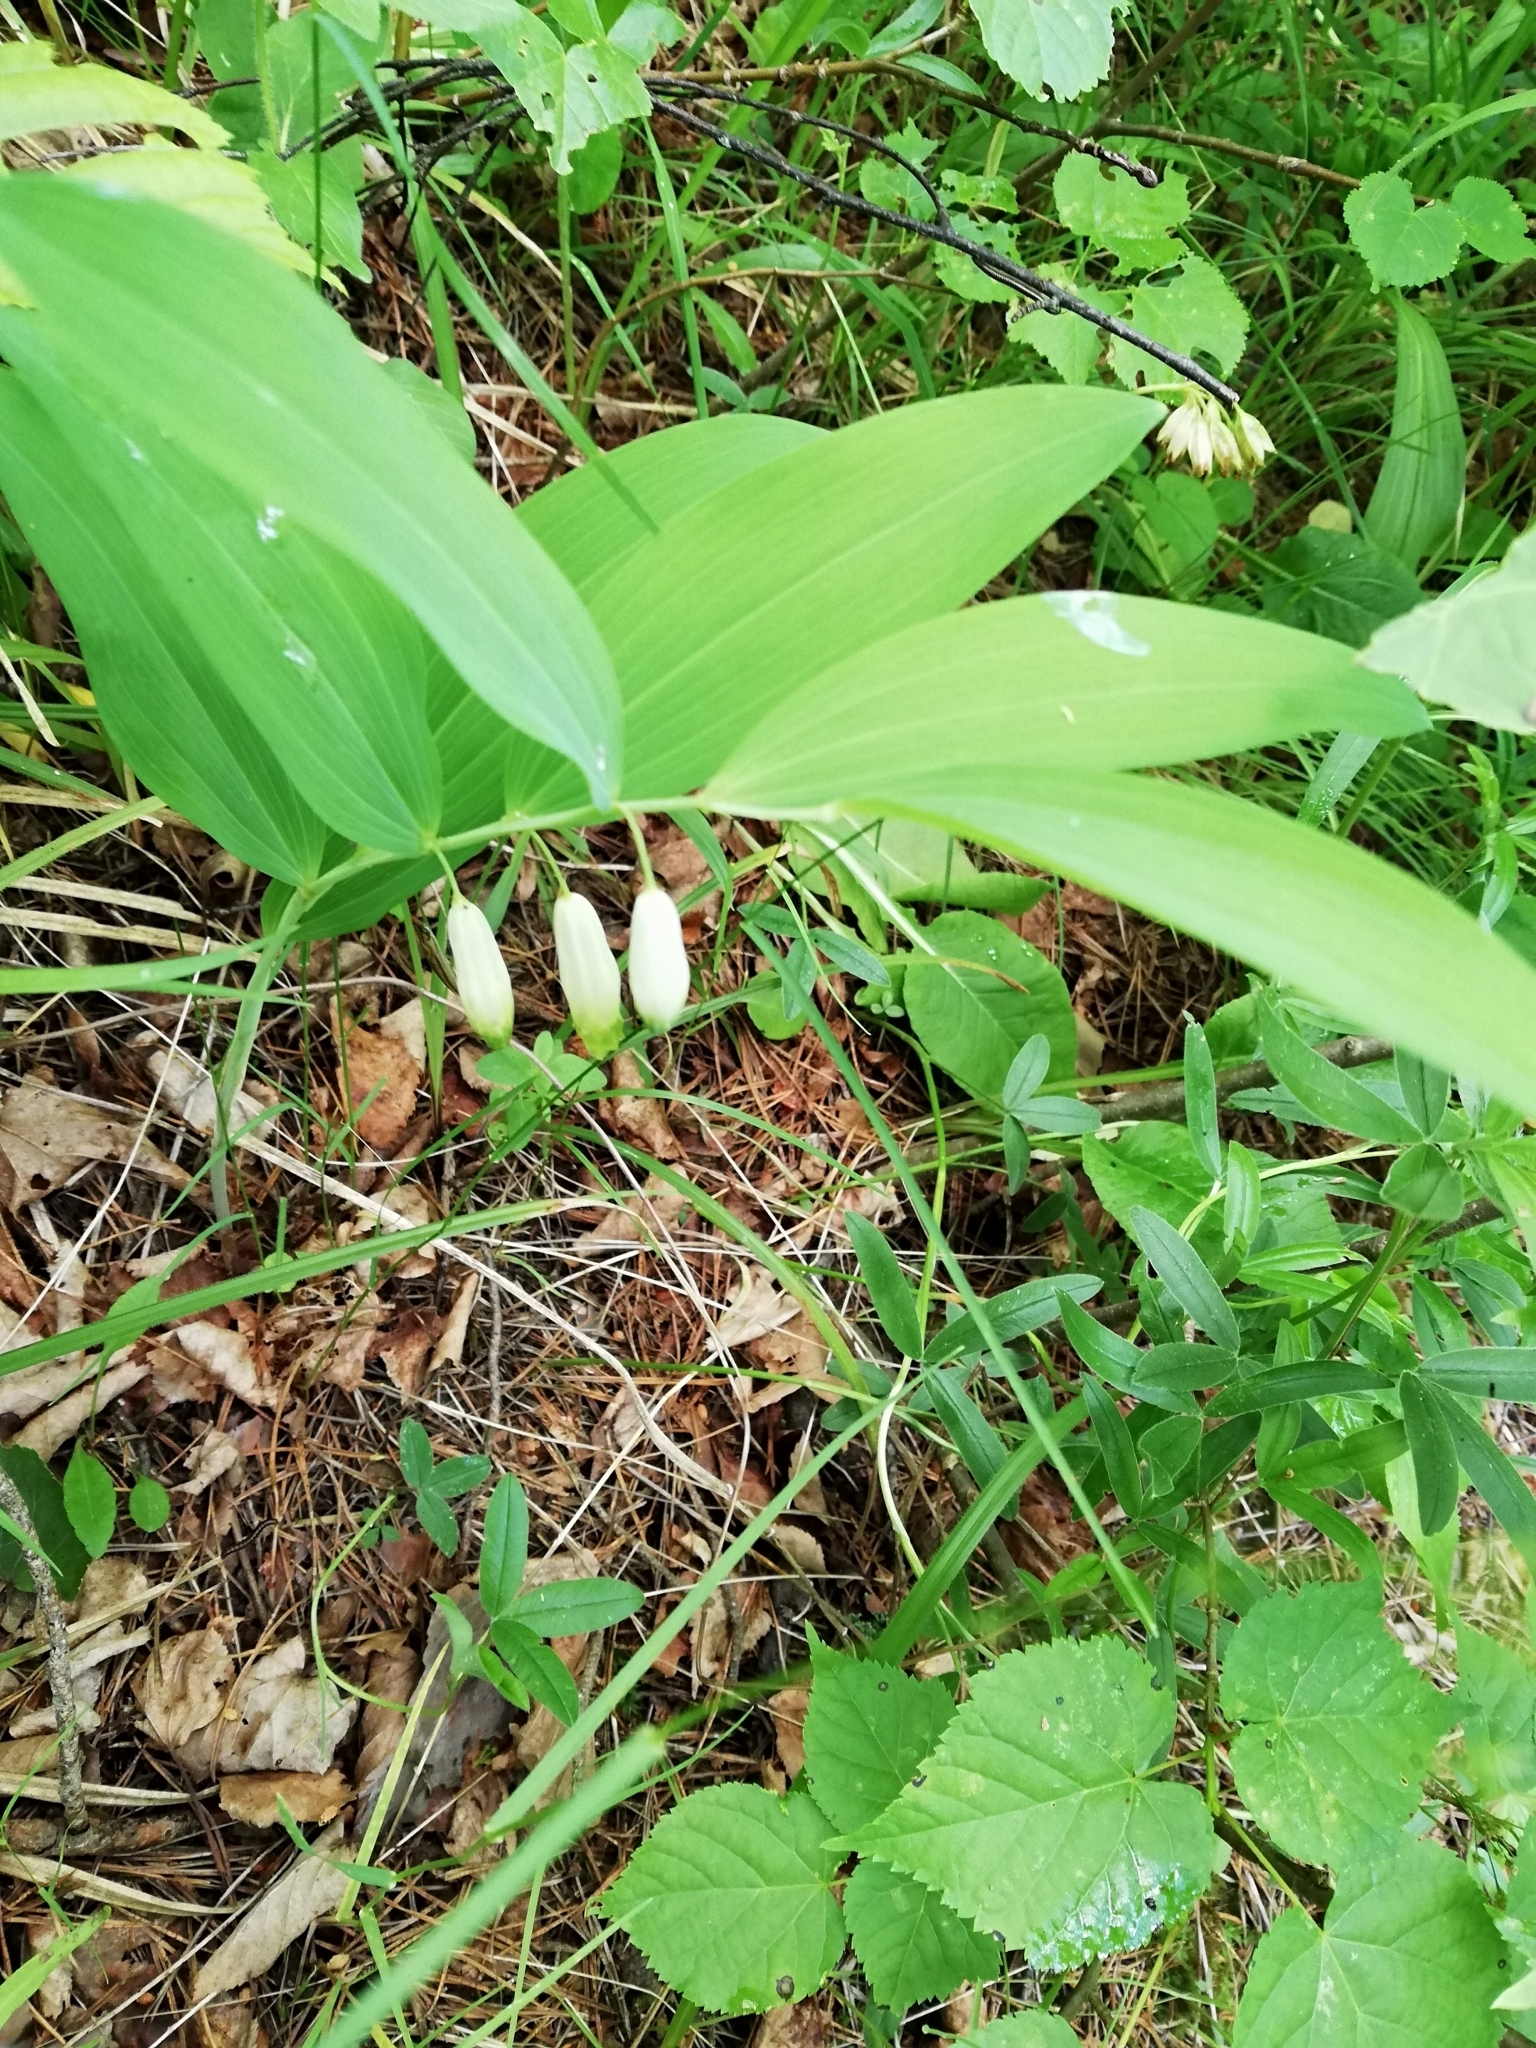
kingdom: Plantae
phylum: Tracheophyta
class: Liliopsida
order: Asparagales
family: Asparagaceae
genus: Polygonatum
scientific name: Polygonatum odoratum
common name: Angular solomon's-seal
